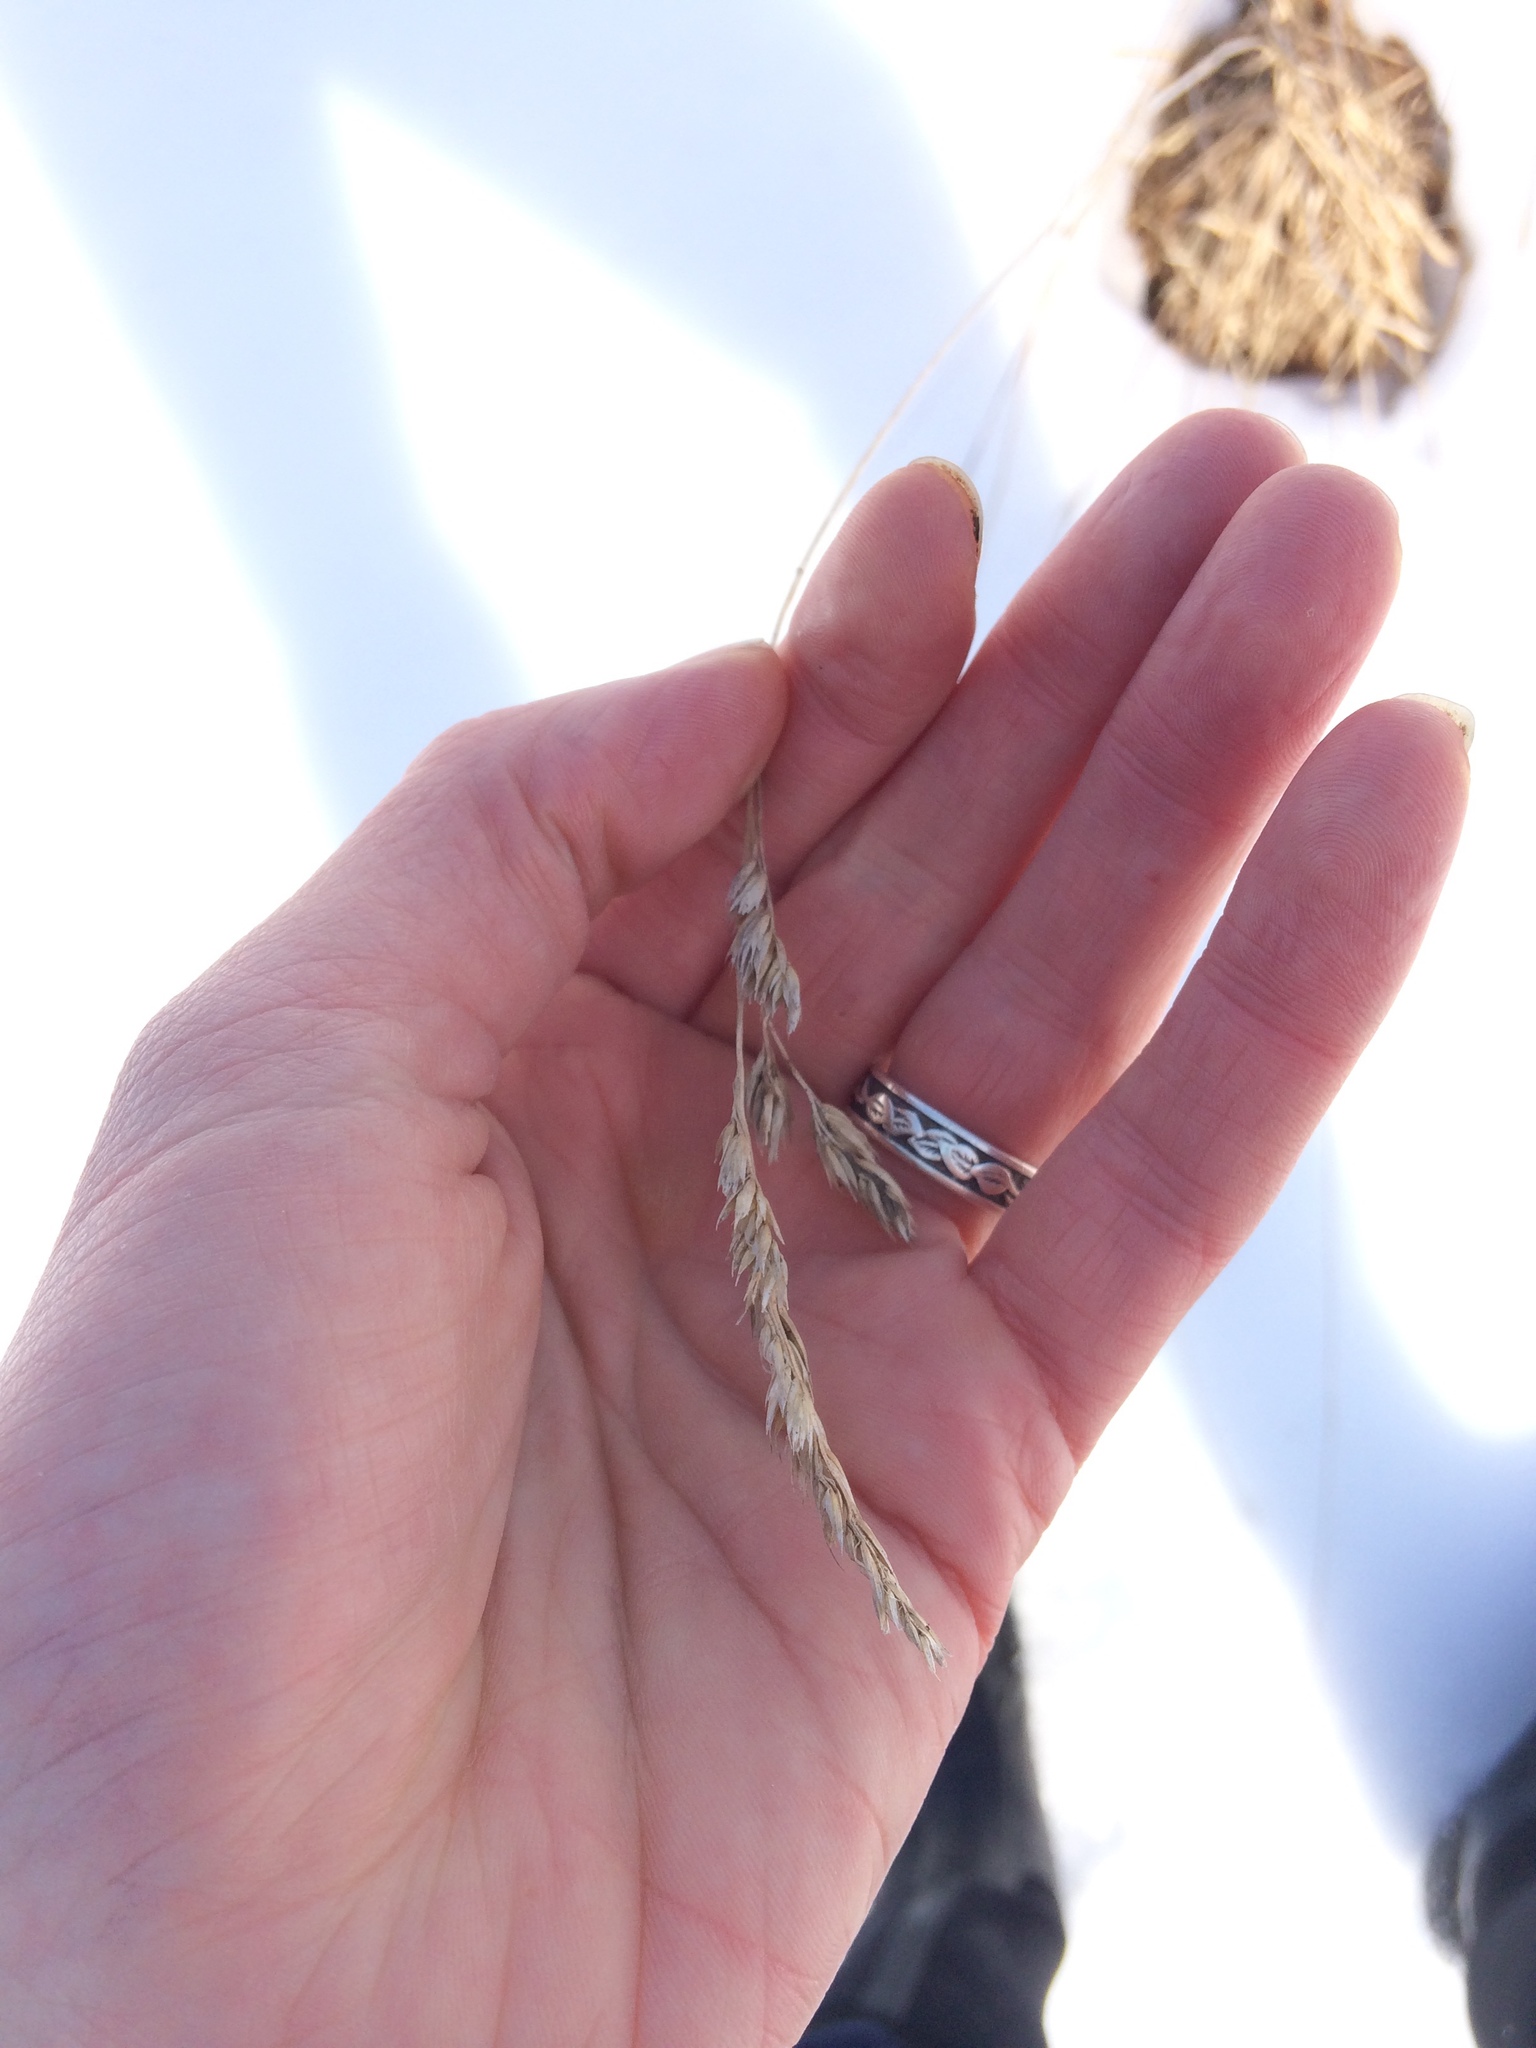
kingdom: Plantae
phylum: Tracheophyta
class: Liliopsida
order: Poales
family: Poaceae
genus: Dactylis
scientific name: Dactylis glomerata
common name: Orchardgrass
